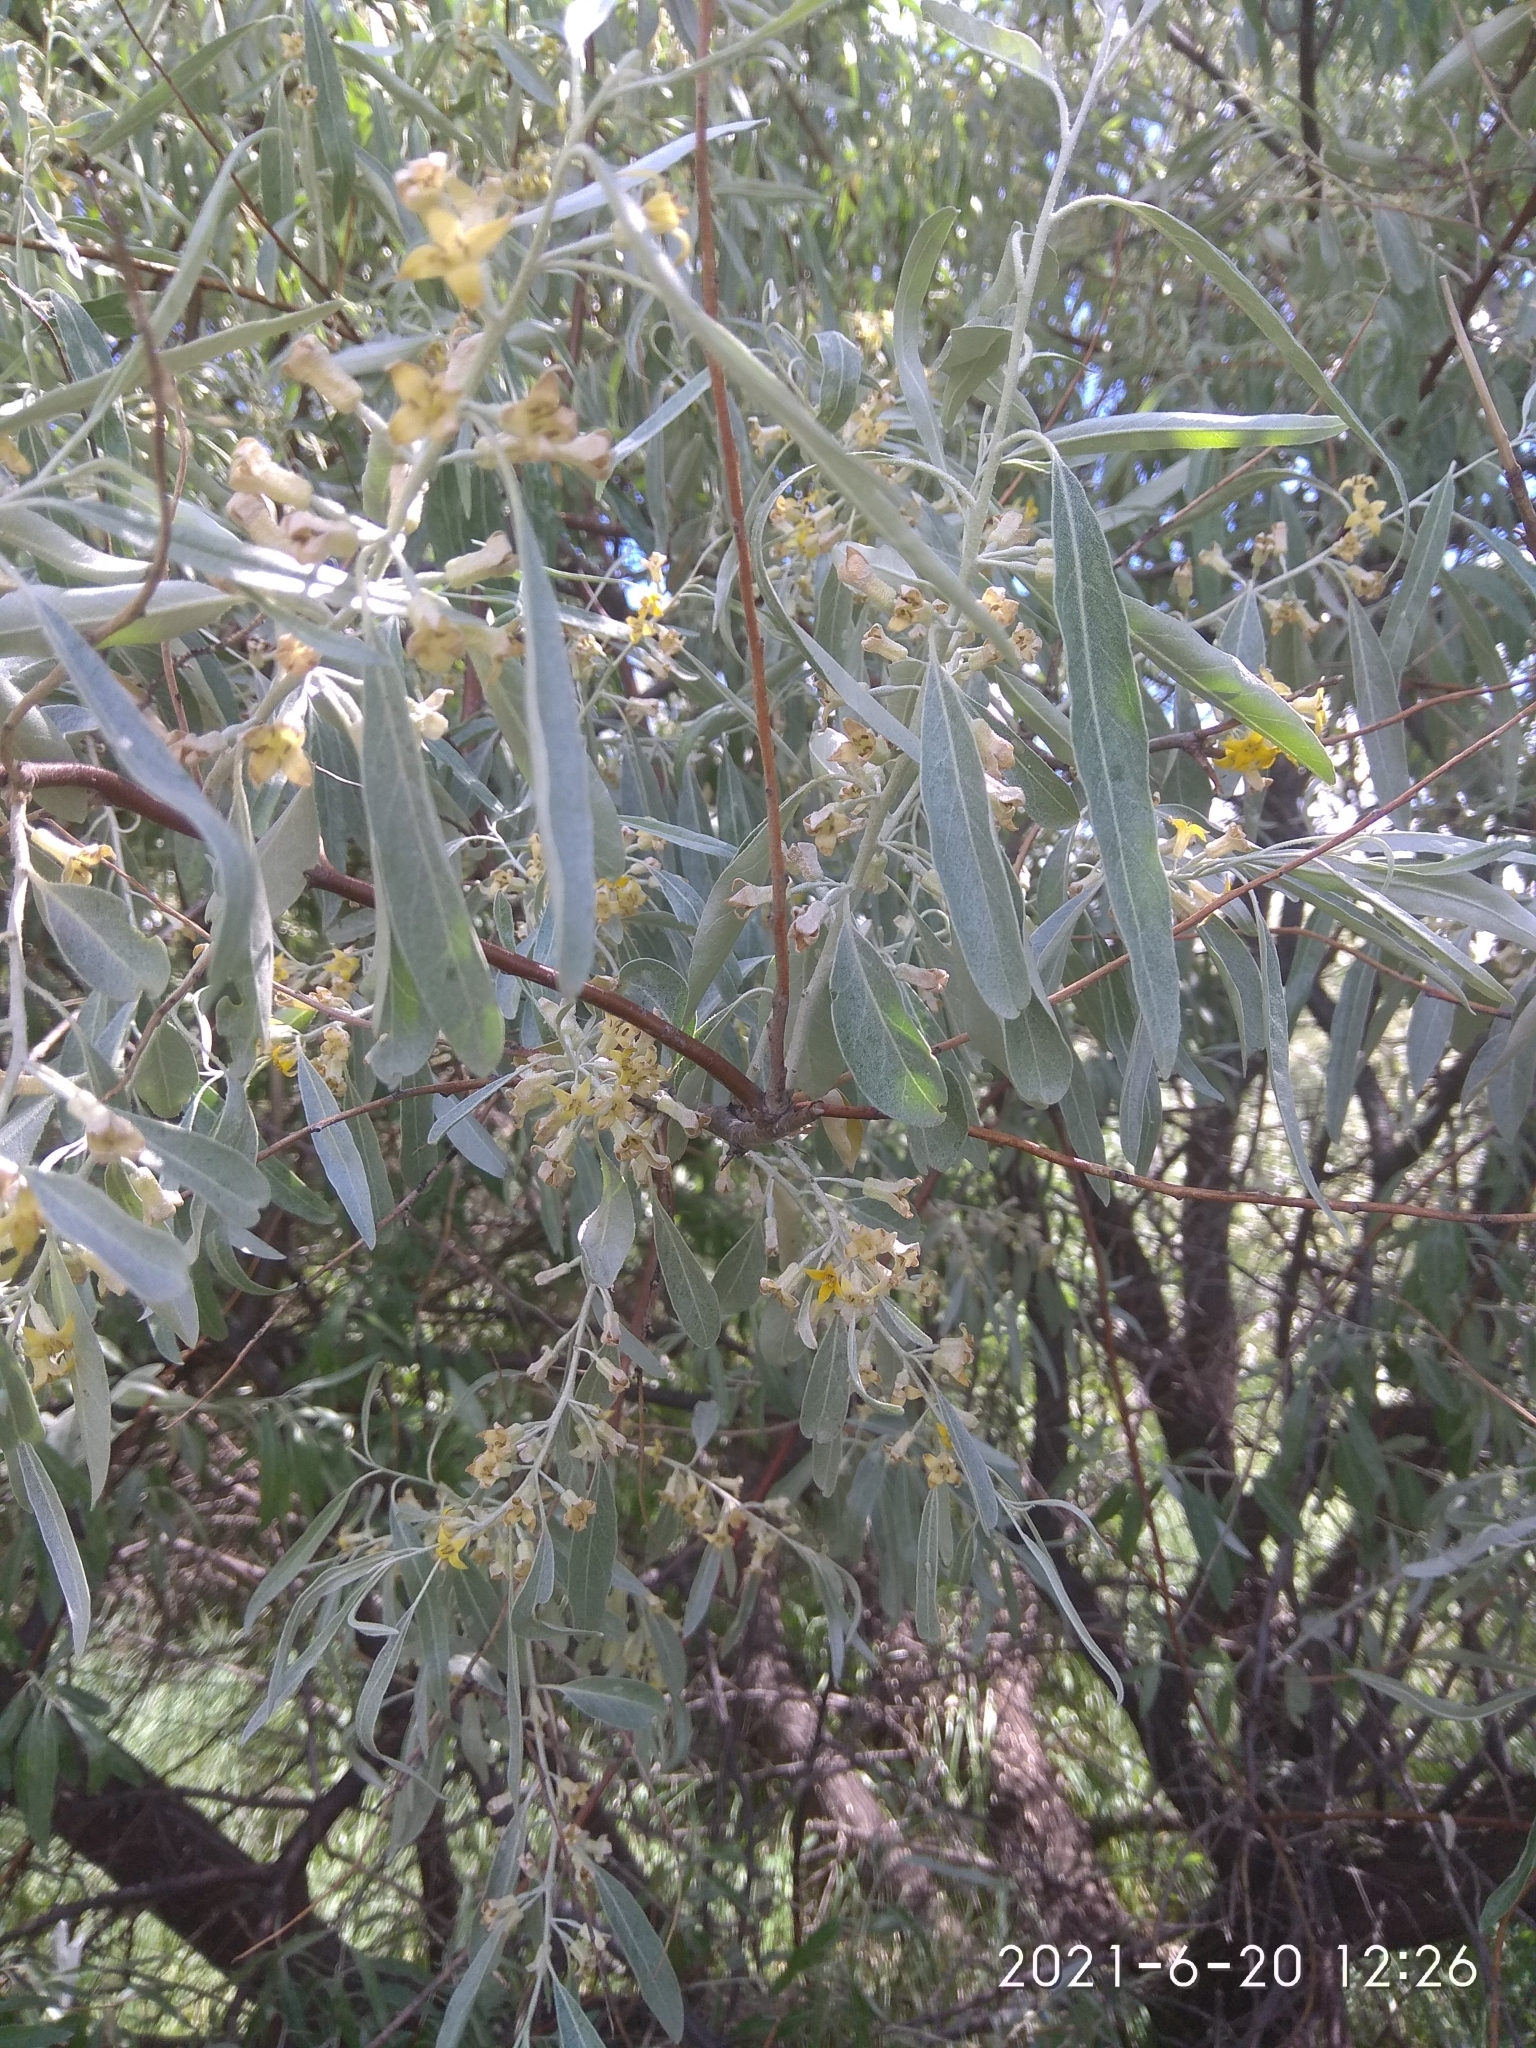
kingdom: Plantae
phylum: Tracheophyta
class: Magnoliopsida
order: Rosales
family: Elaeagnaceae
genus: Elaeagnus
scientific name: Elaeagnus angustifolia
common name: Russian olive
